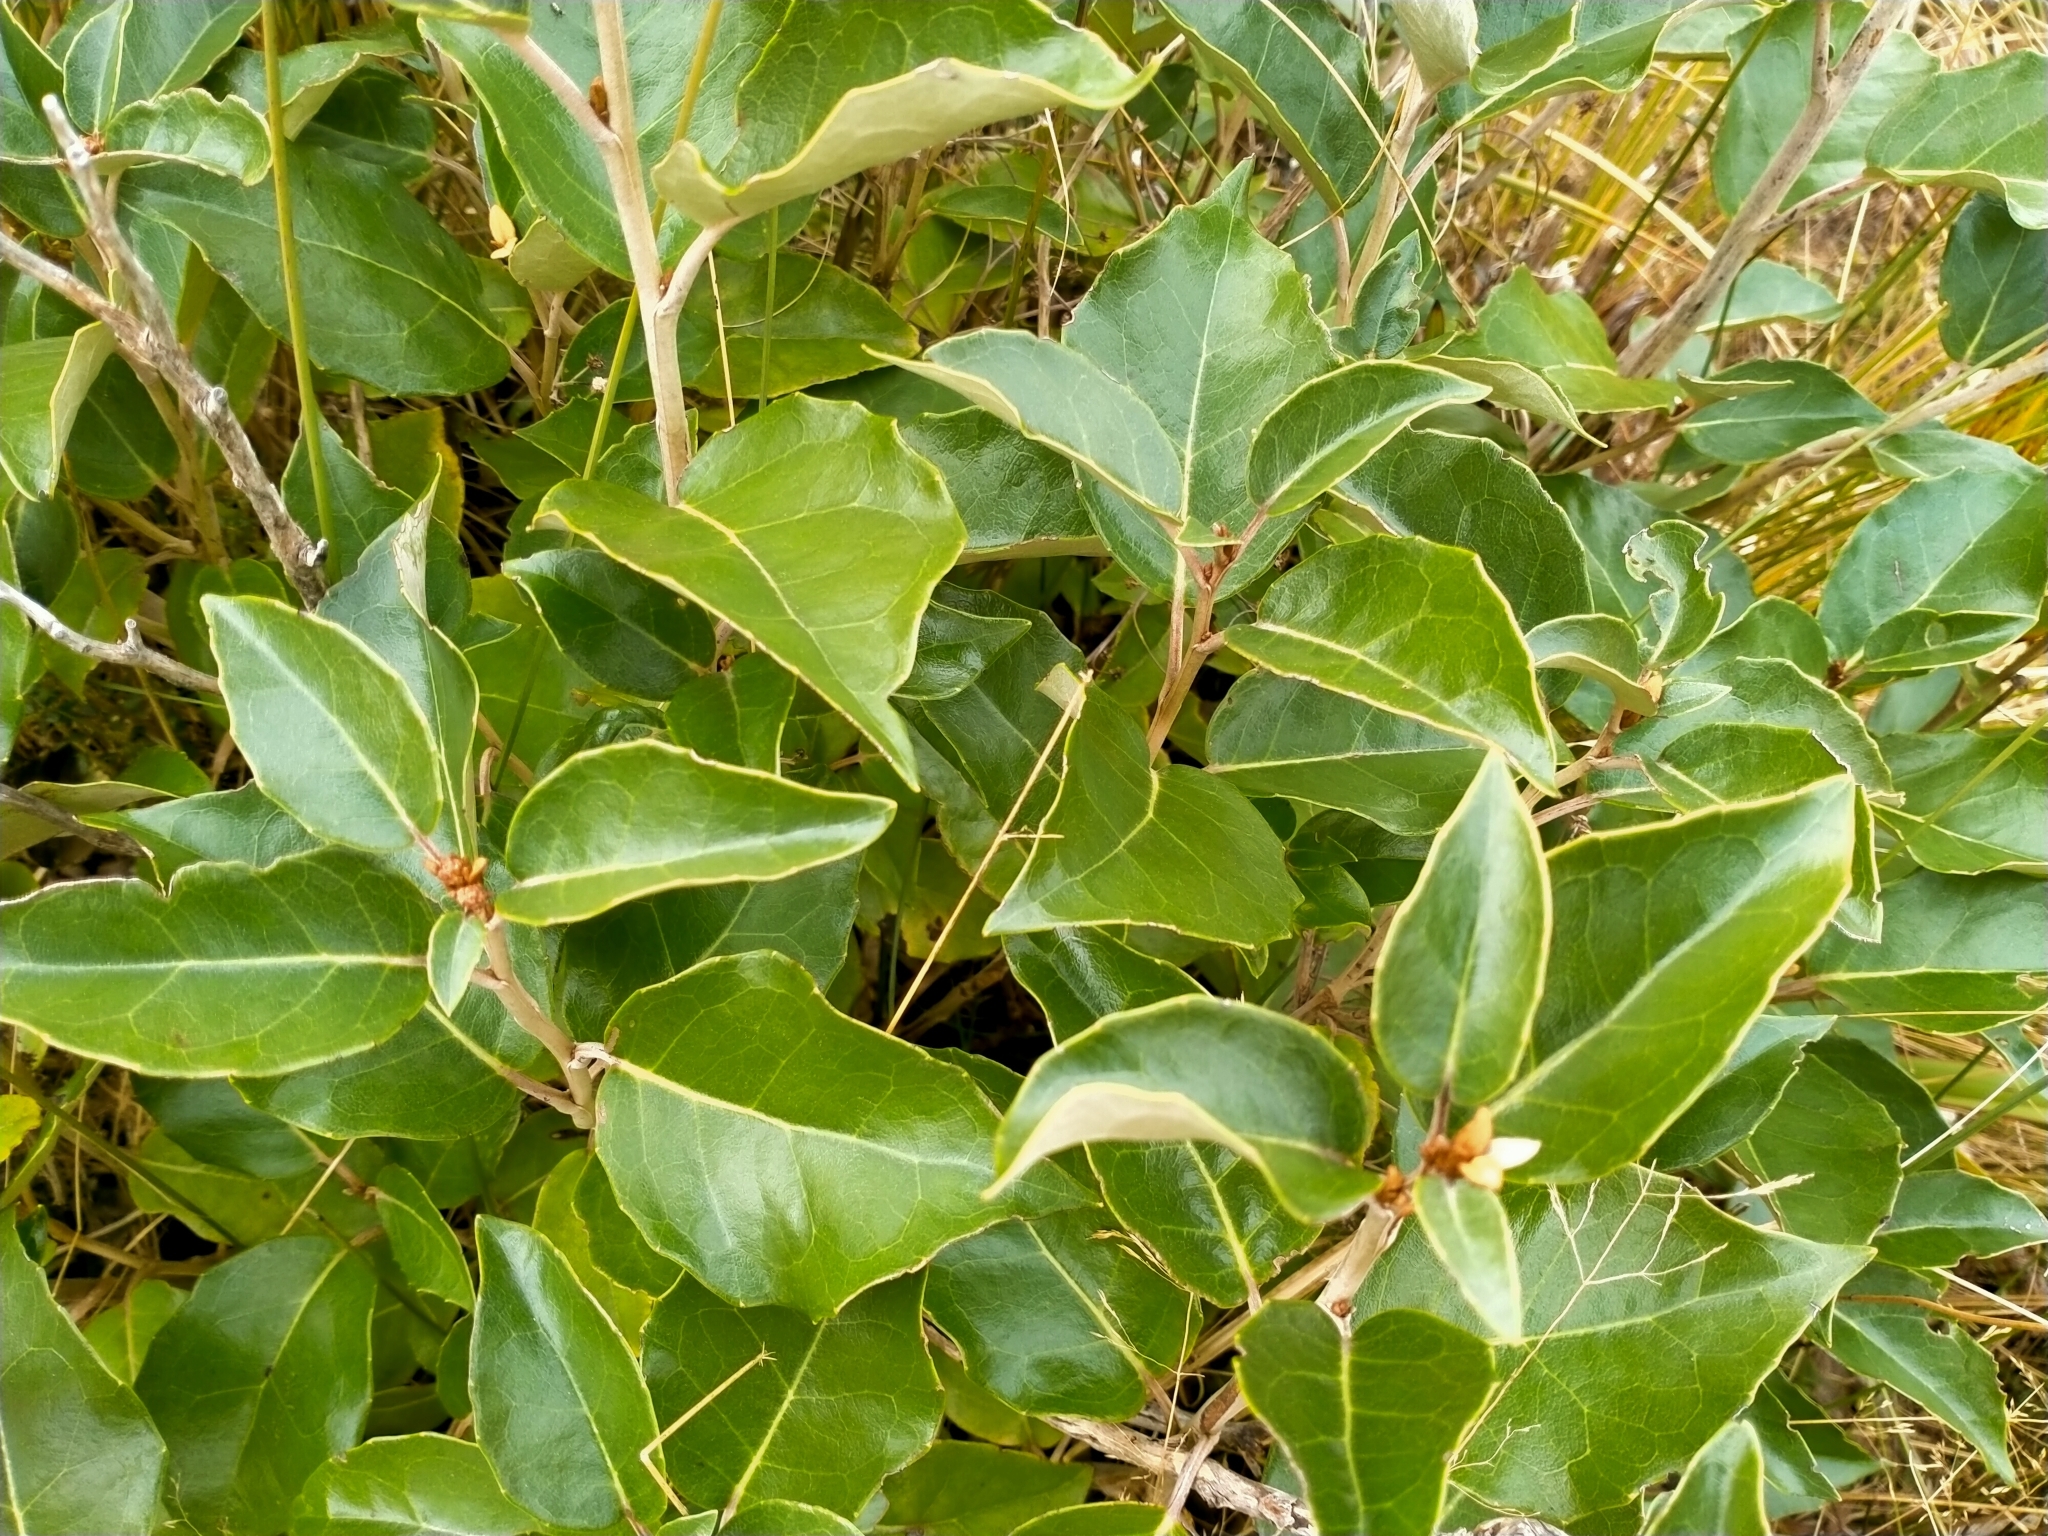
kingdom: Plantae
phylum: Tracheophyta
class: Magnoliopsida
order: Asterales
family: Asteraceae
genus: Olearia
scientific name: Olearia arborescens
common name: Glossy tree daisy
